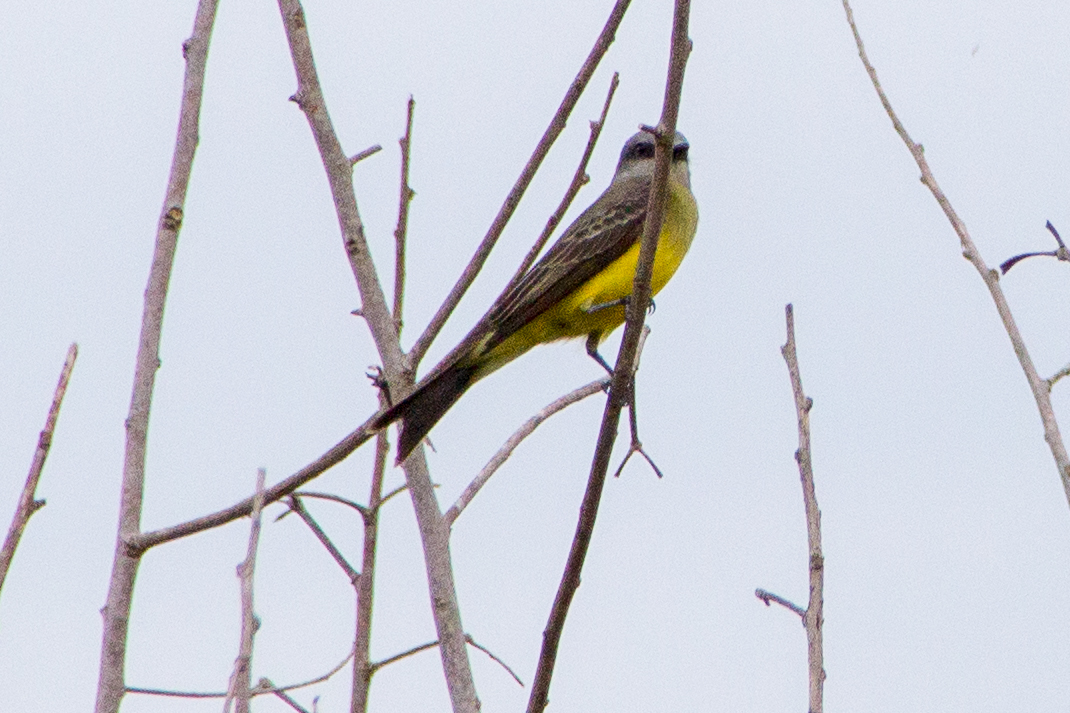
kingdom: Animalia
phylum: Chordata
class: Aves
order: Passeriformes
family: Tyrannidae
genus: Tyrannus
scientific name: Tyrannus melancholicus
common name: Tropical kingbird
